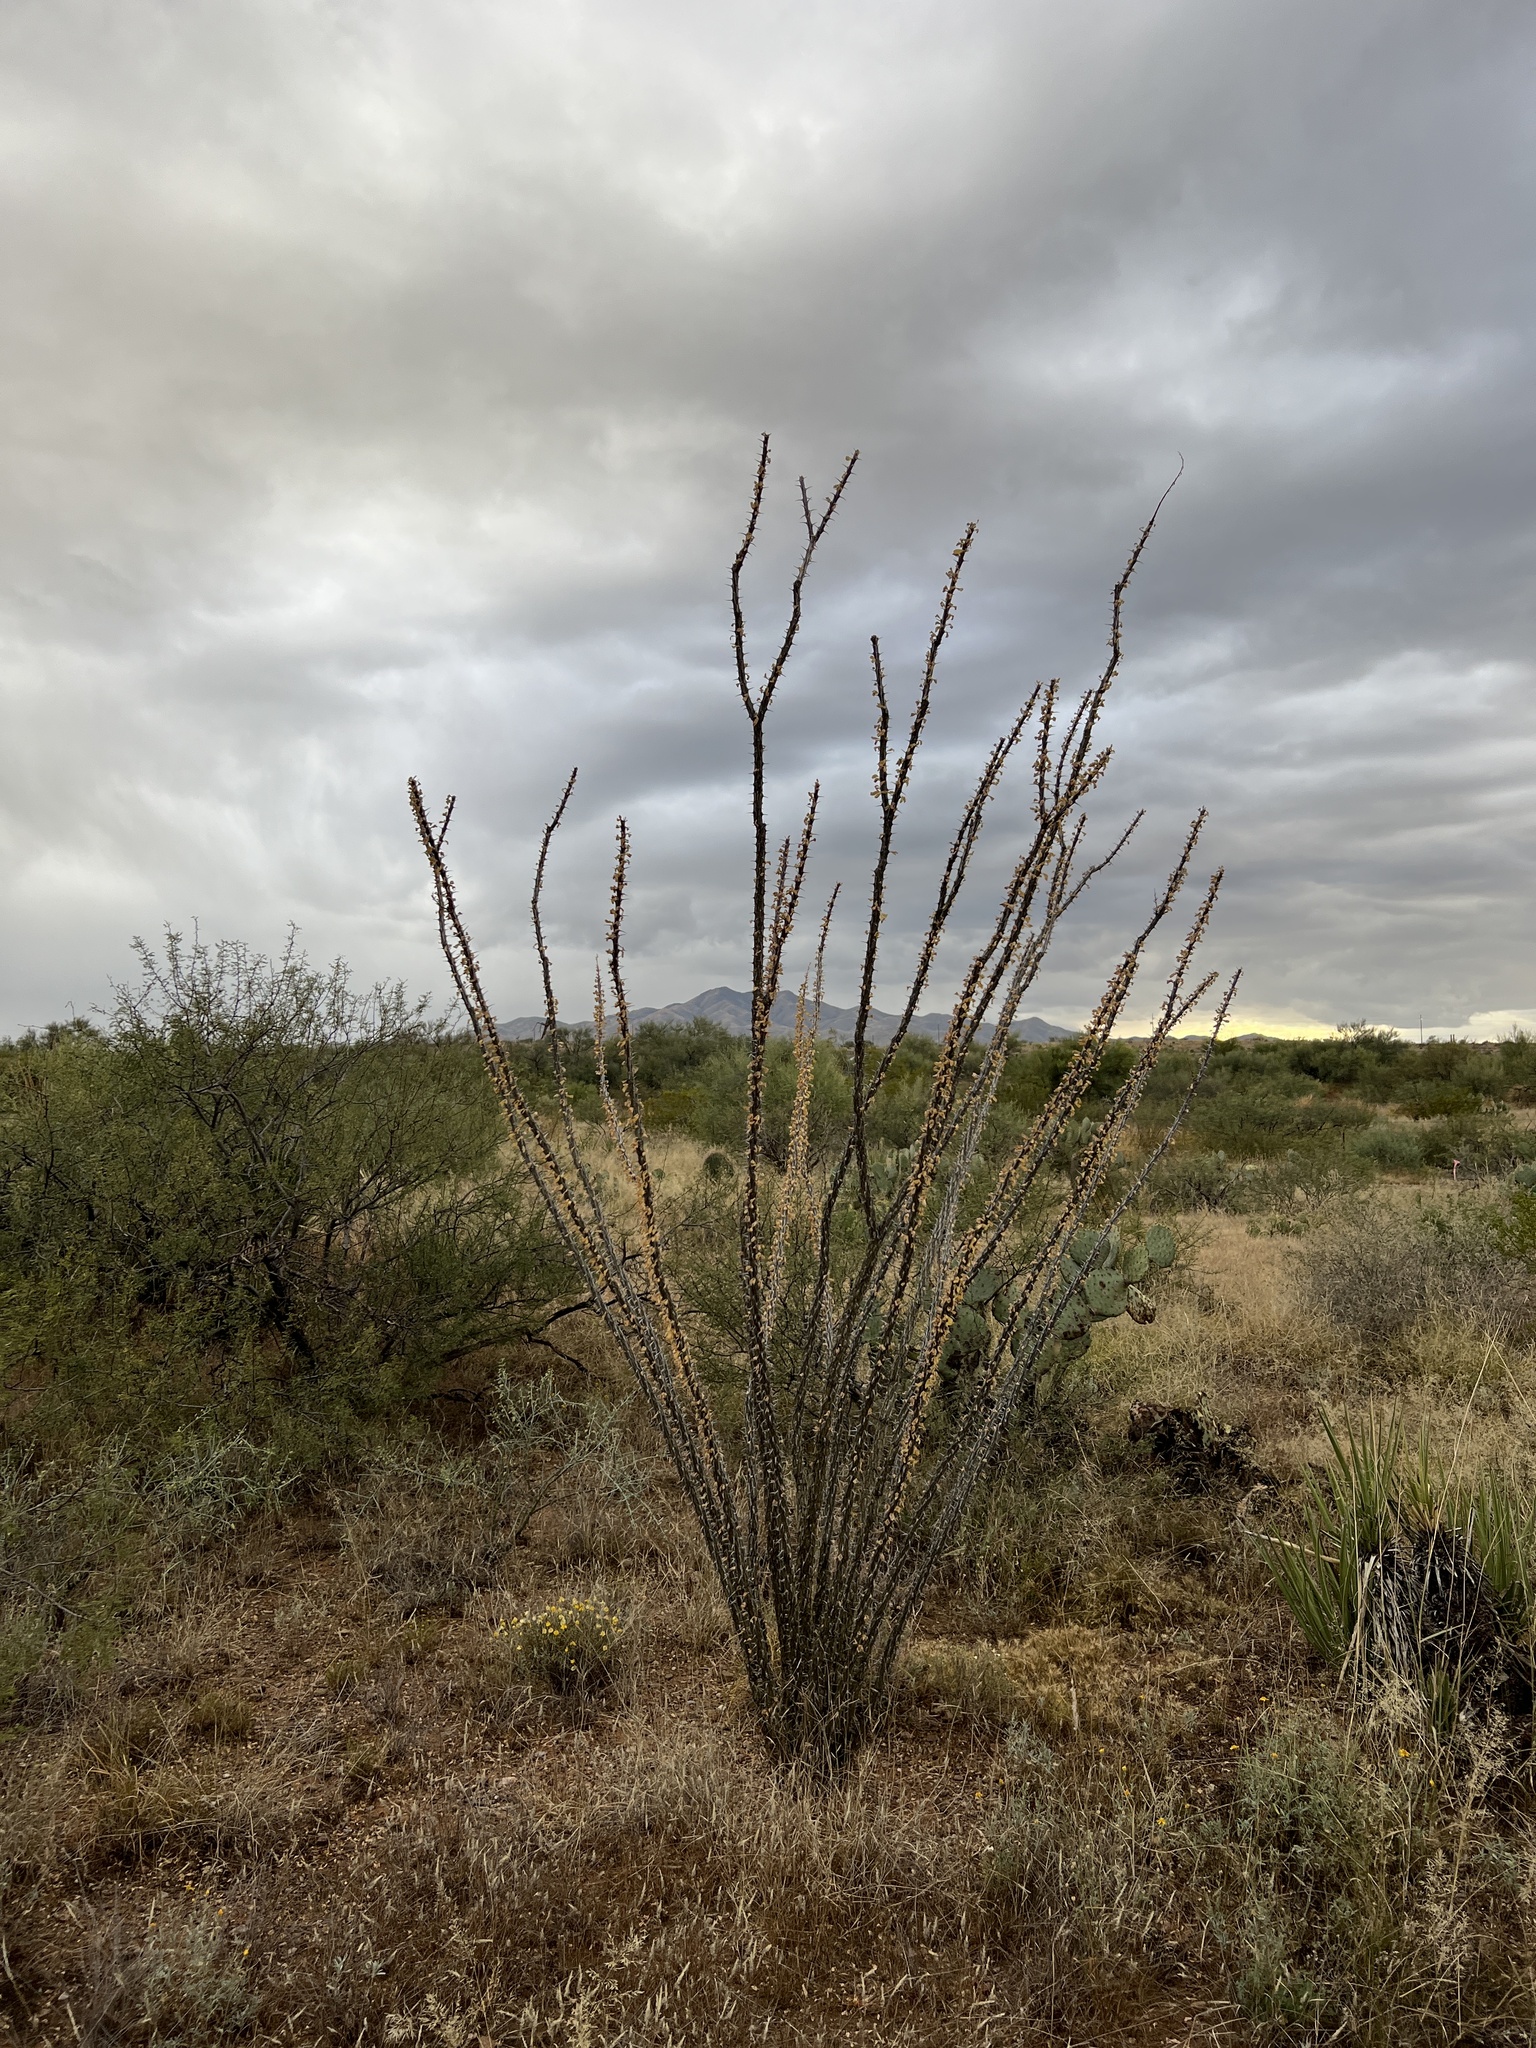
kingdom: Plantae
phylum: Tracheophyta
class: Magnoliopsida
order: Ericales
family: Fouquieriaceae
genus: Fouquieria
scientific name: Fouquieria splendens
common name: Vine-cactus
